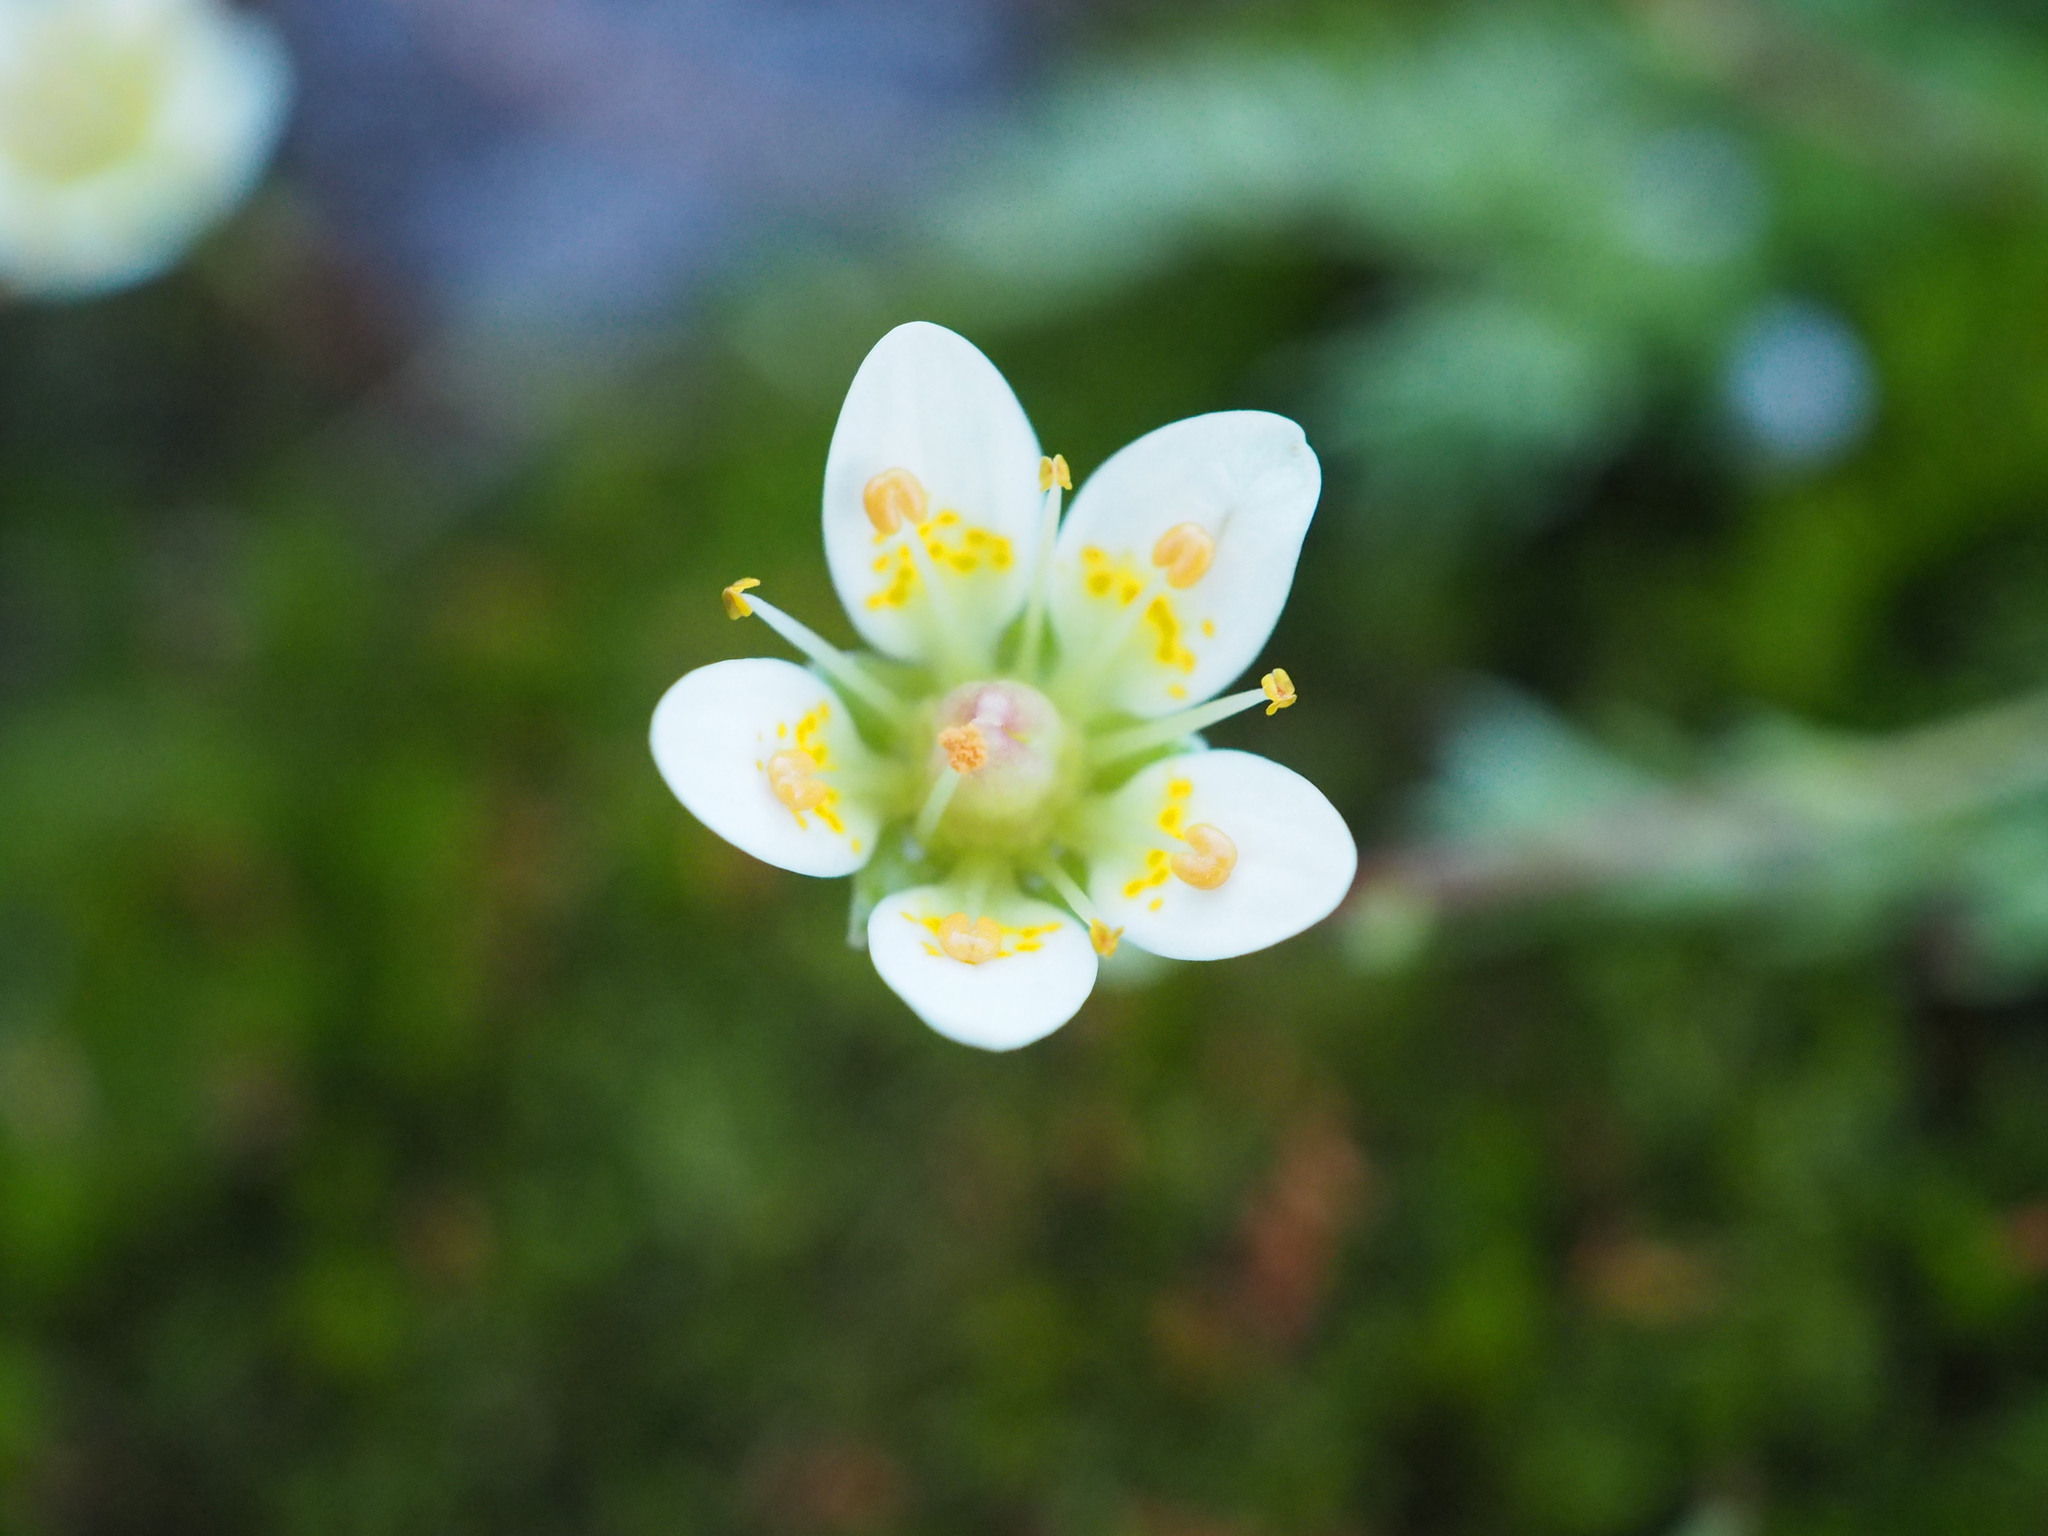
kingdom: Plantae
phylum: Tracheophyta
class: Magnoliopsida
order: Saxifragales
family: Saxifragaceae
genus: Saxifraga
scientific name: Saxifraga bryoides
